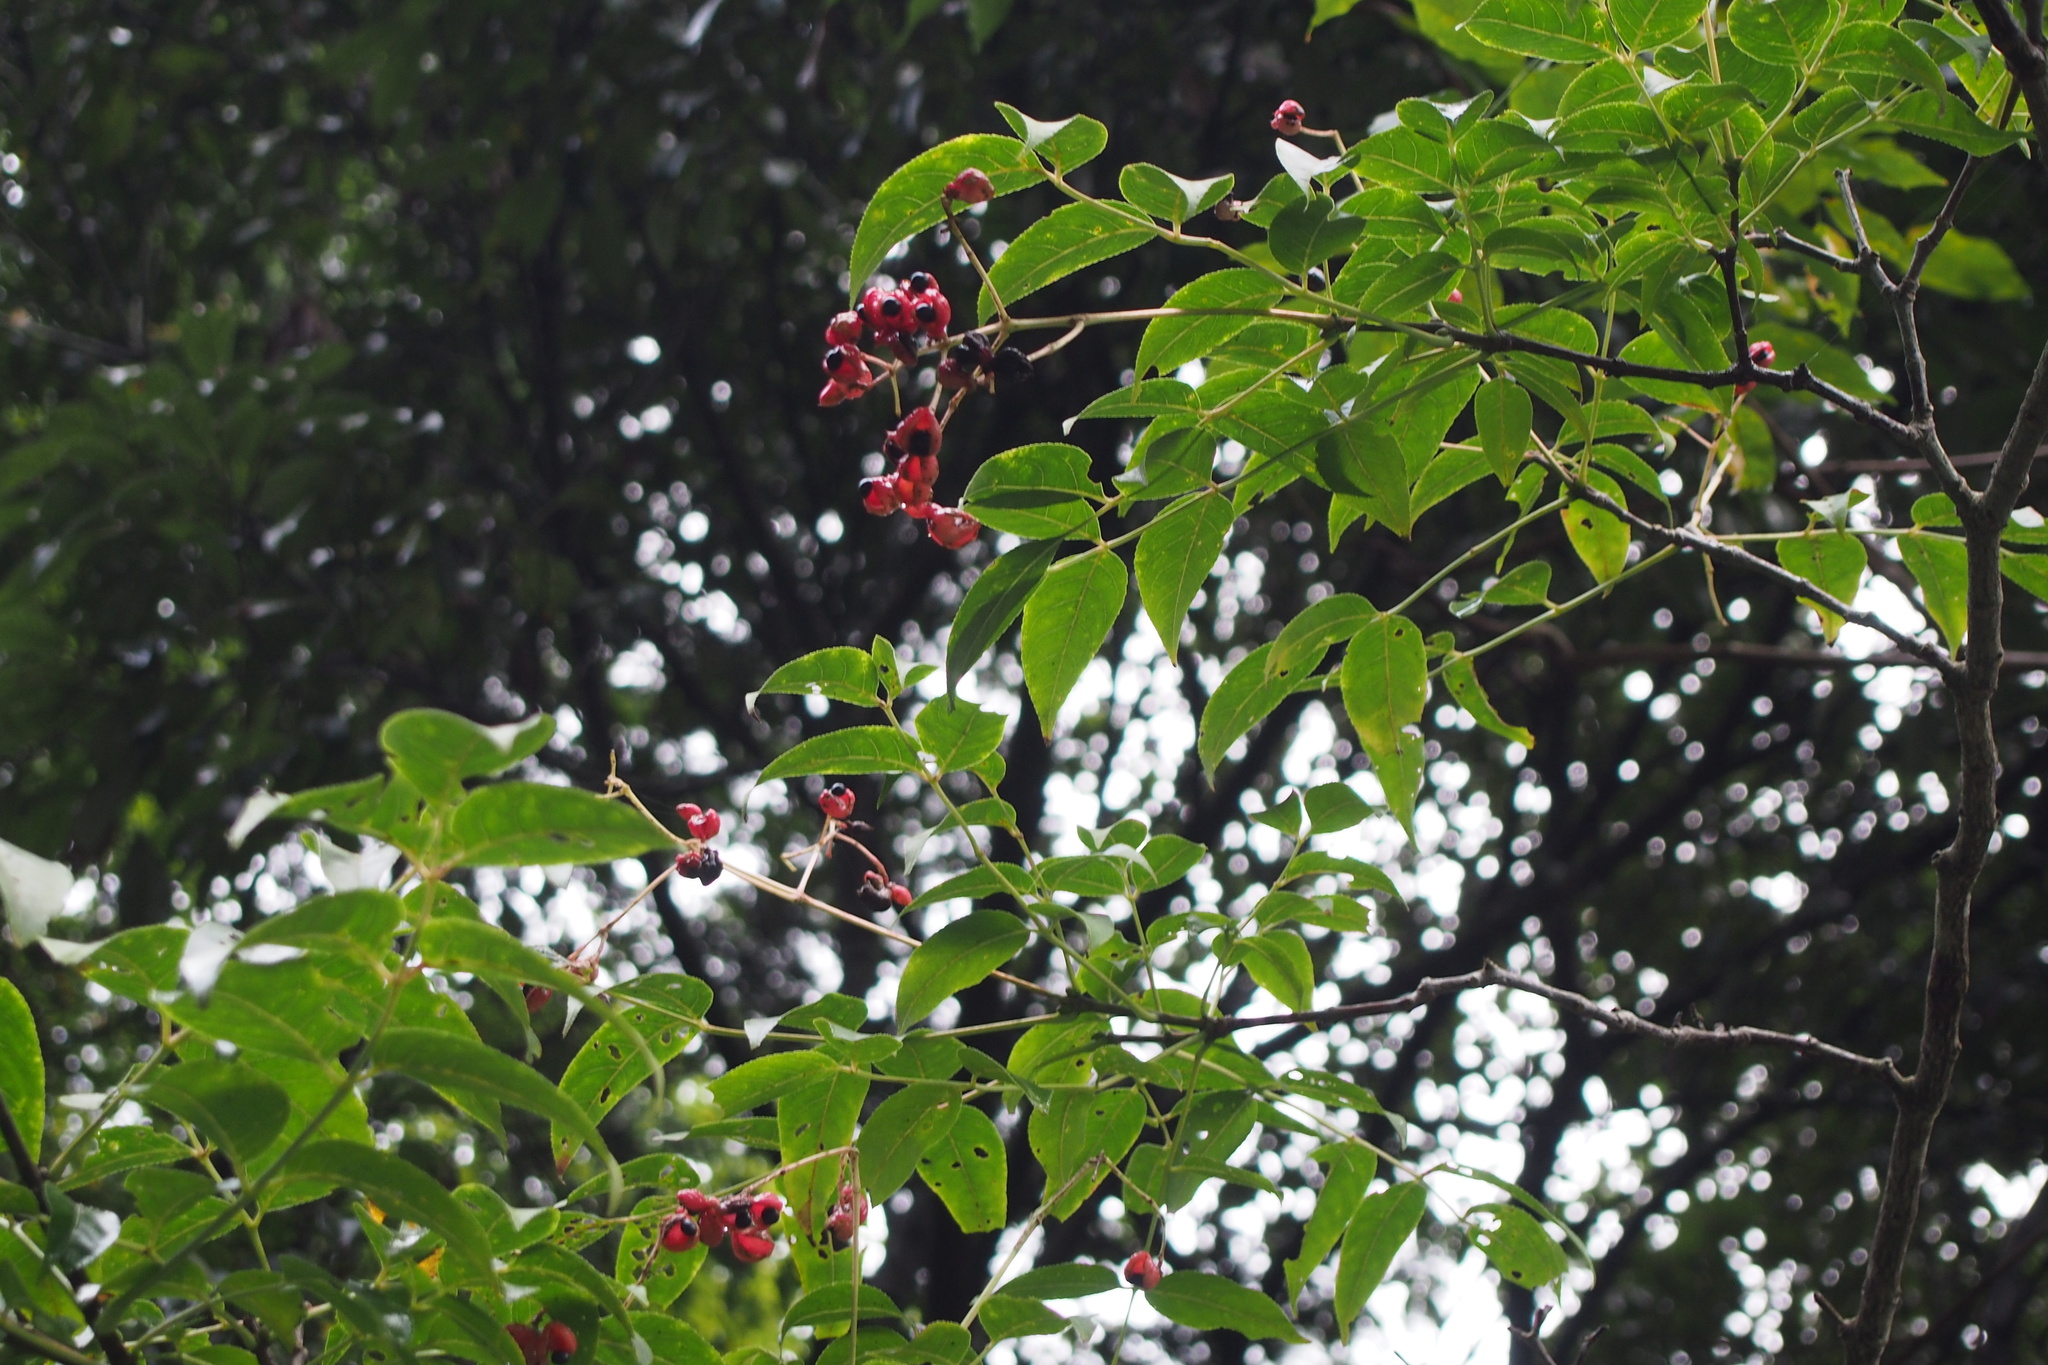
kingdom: Plantae
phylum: Tracheophyta
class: Magnoliopsida
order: Crossosomatales
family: Staphyleaceae
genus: Staphylea
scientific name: Staphylea japonica
